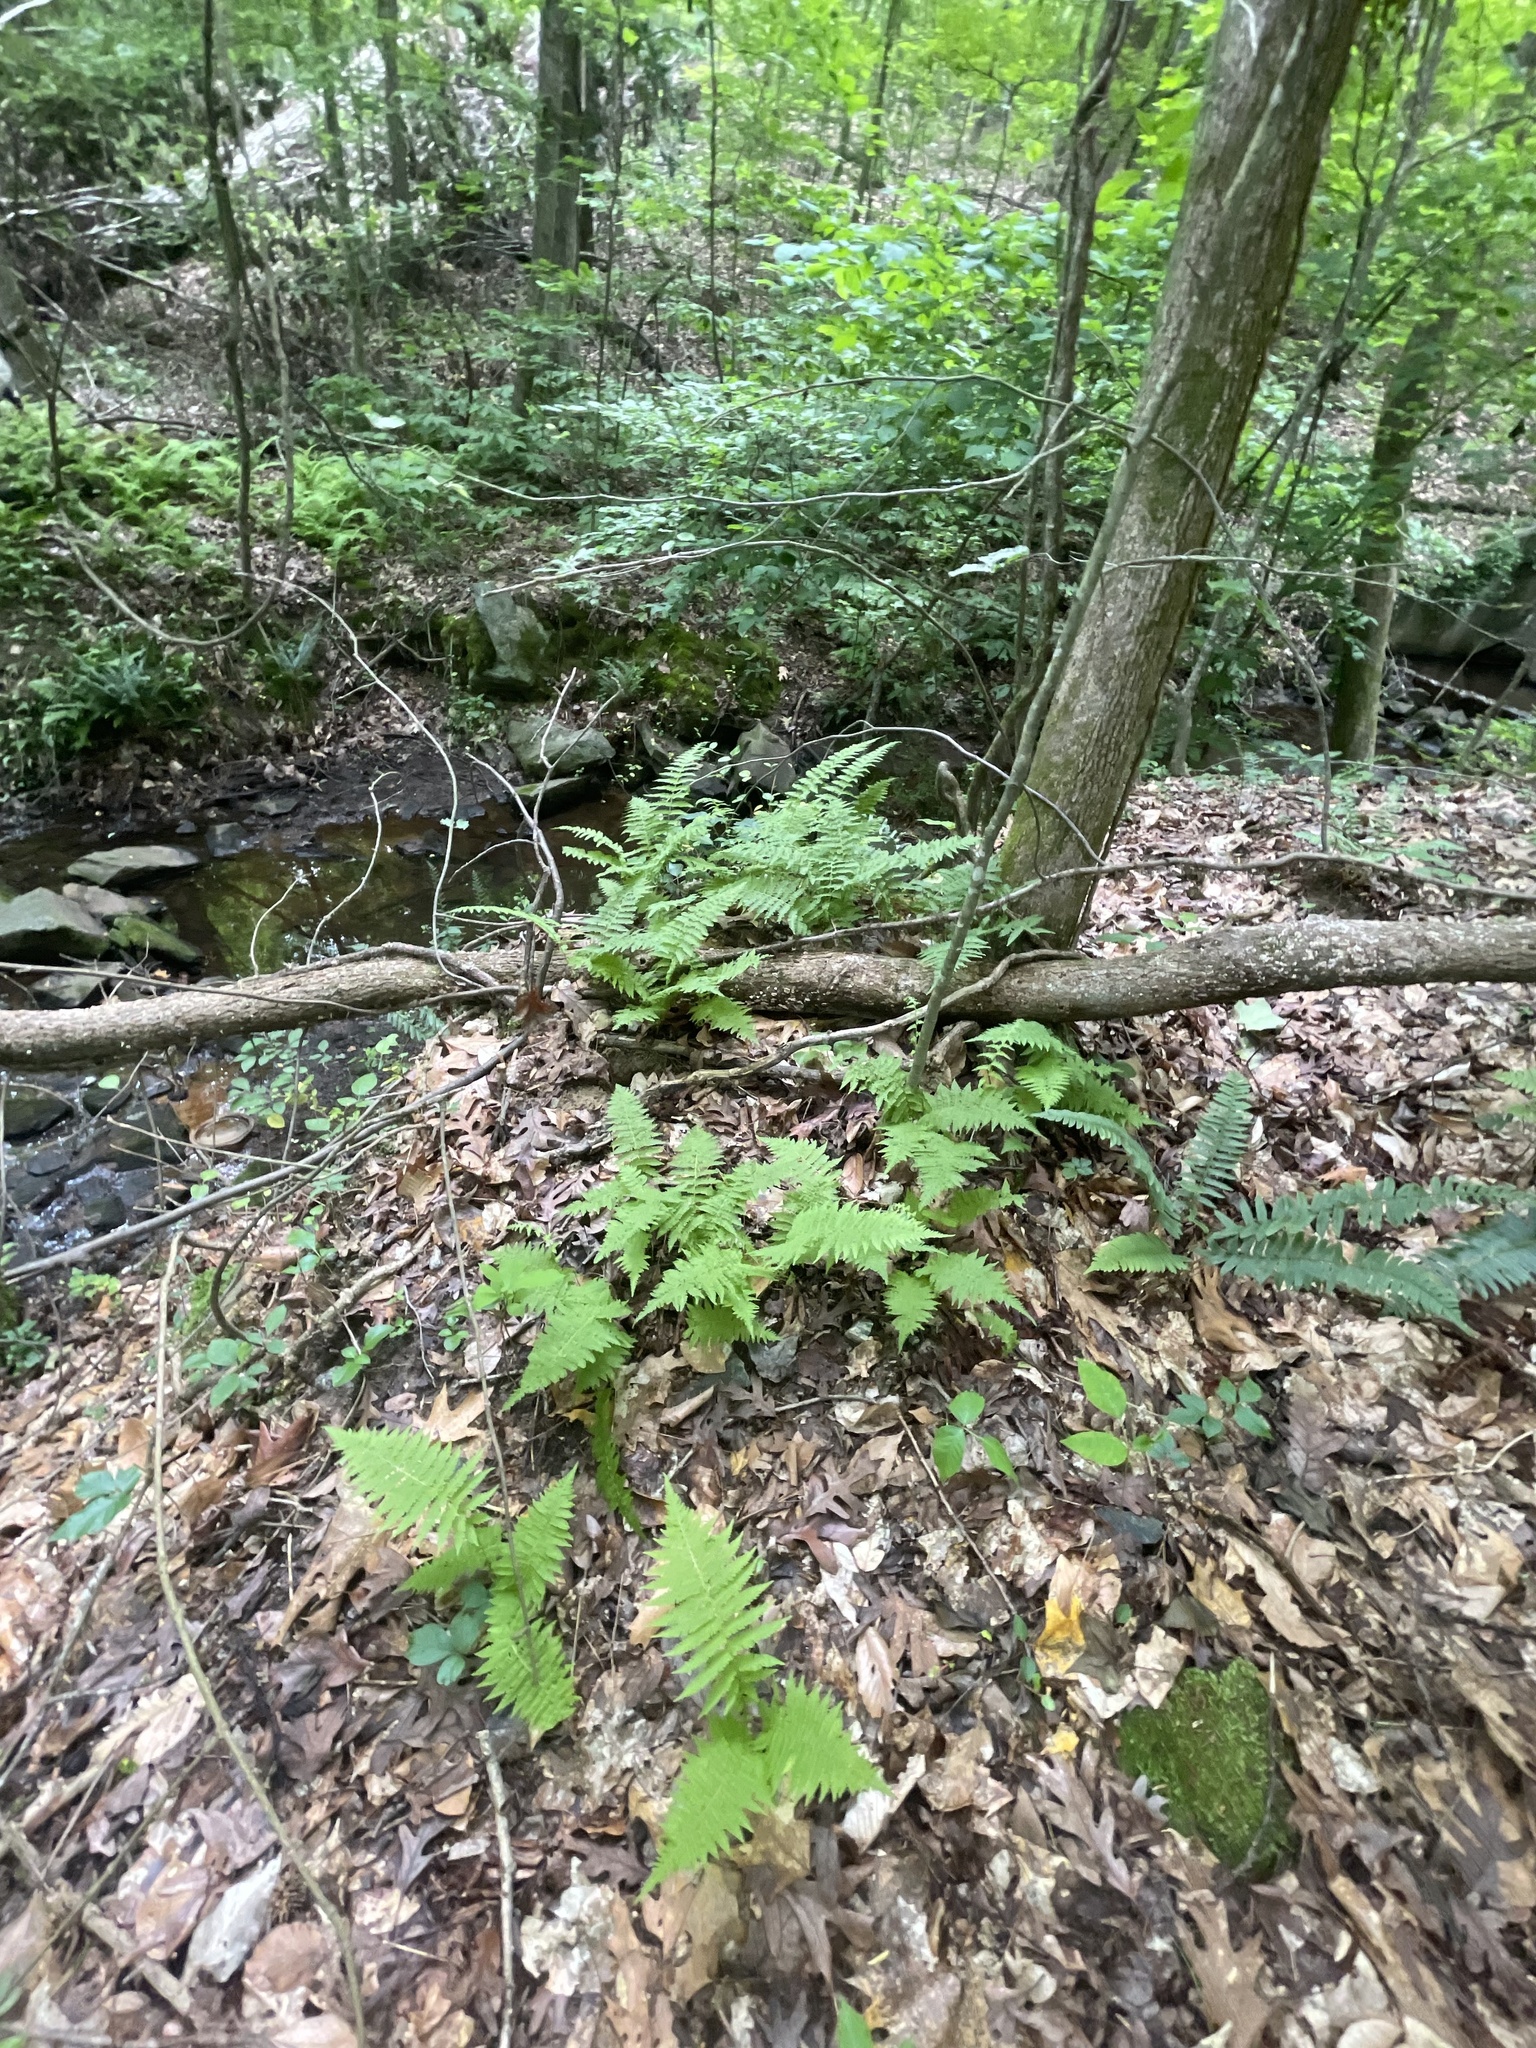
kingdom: Plantae
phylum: Tracheophyta
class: Polypodiopsida
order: Polypodiales
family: Thelypteridaceae
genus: Amauropelta
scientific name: Amauropelta noveboracensis
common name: New york fern
